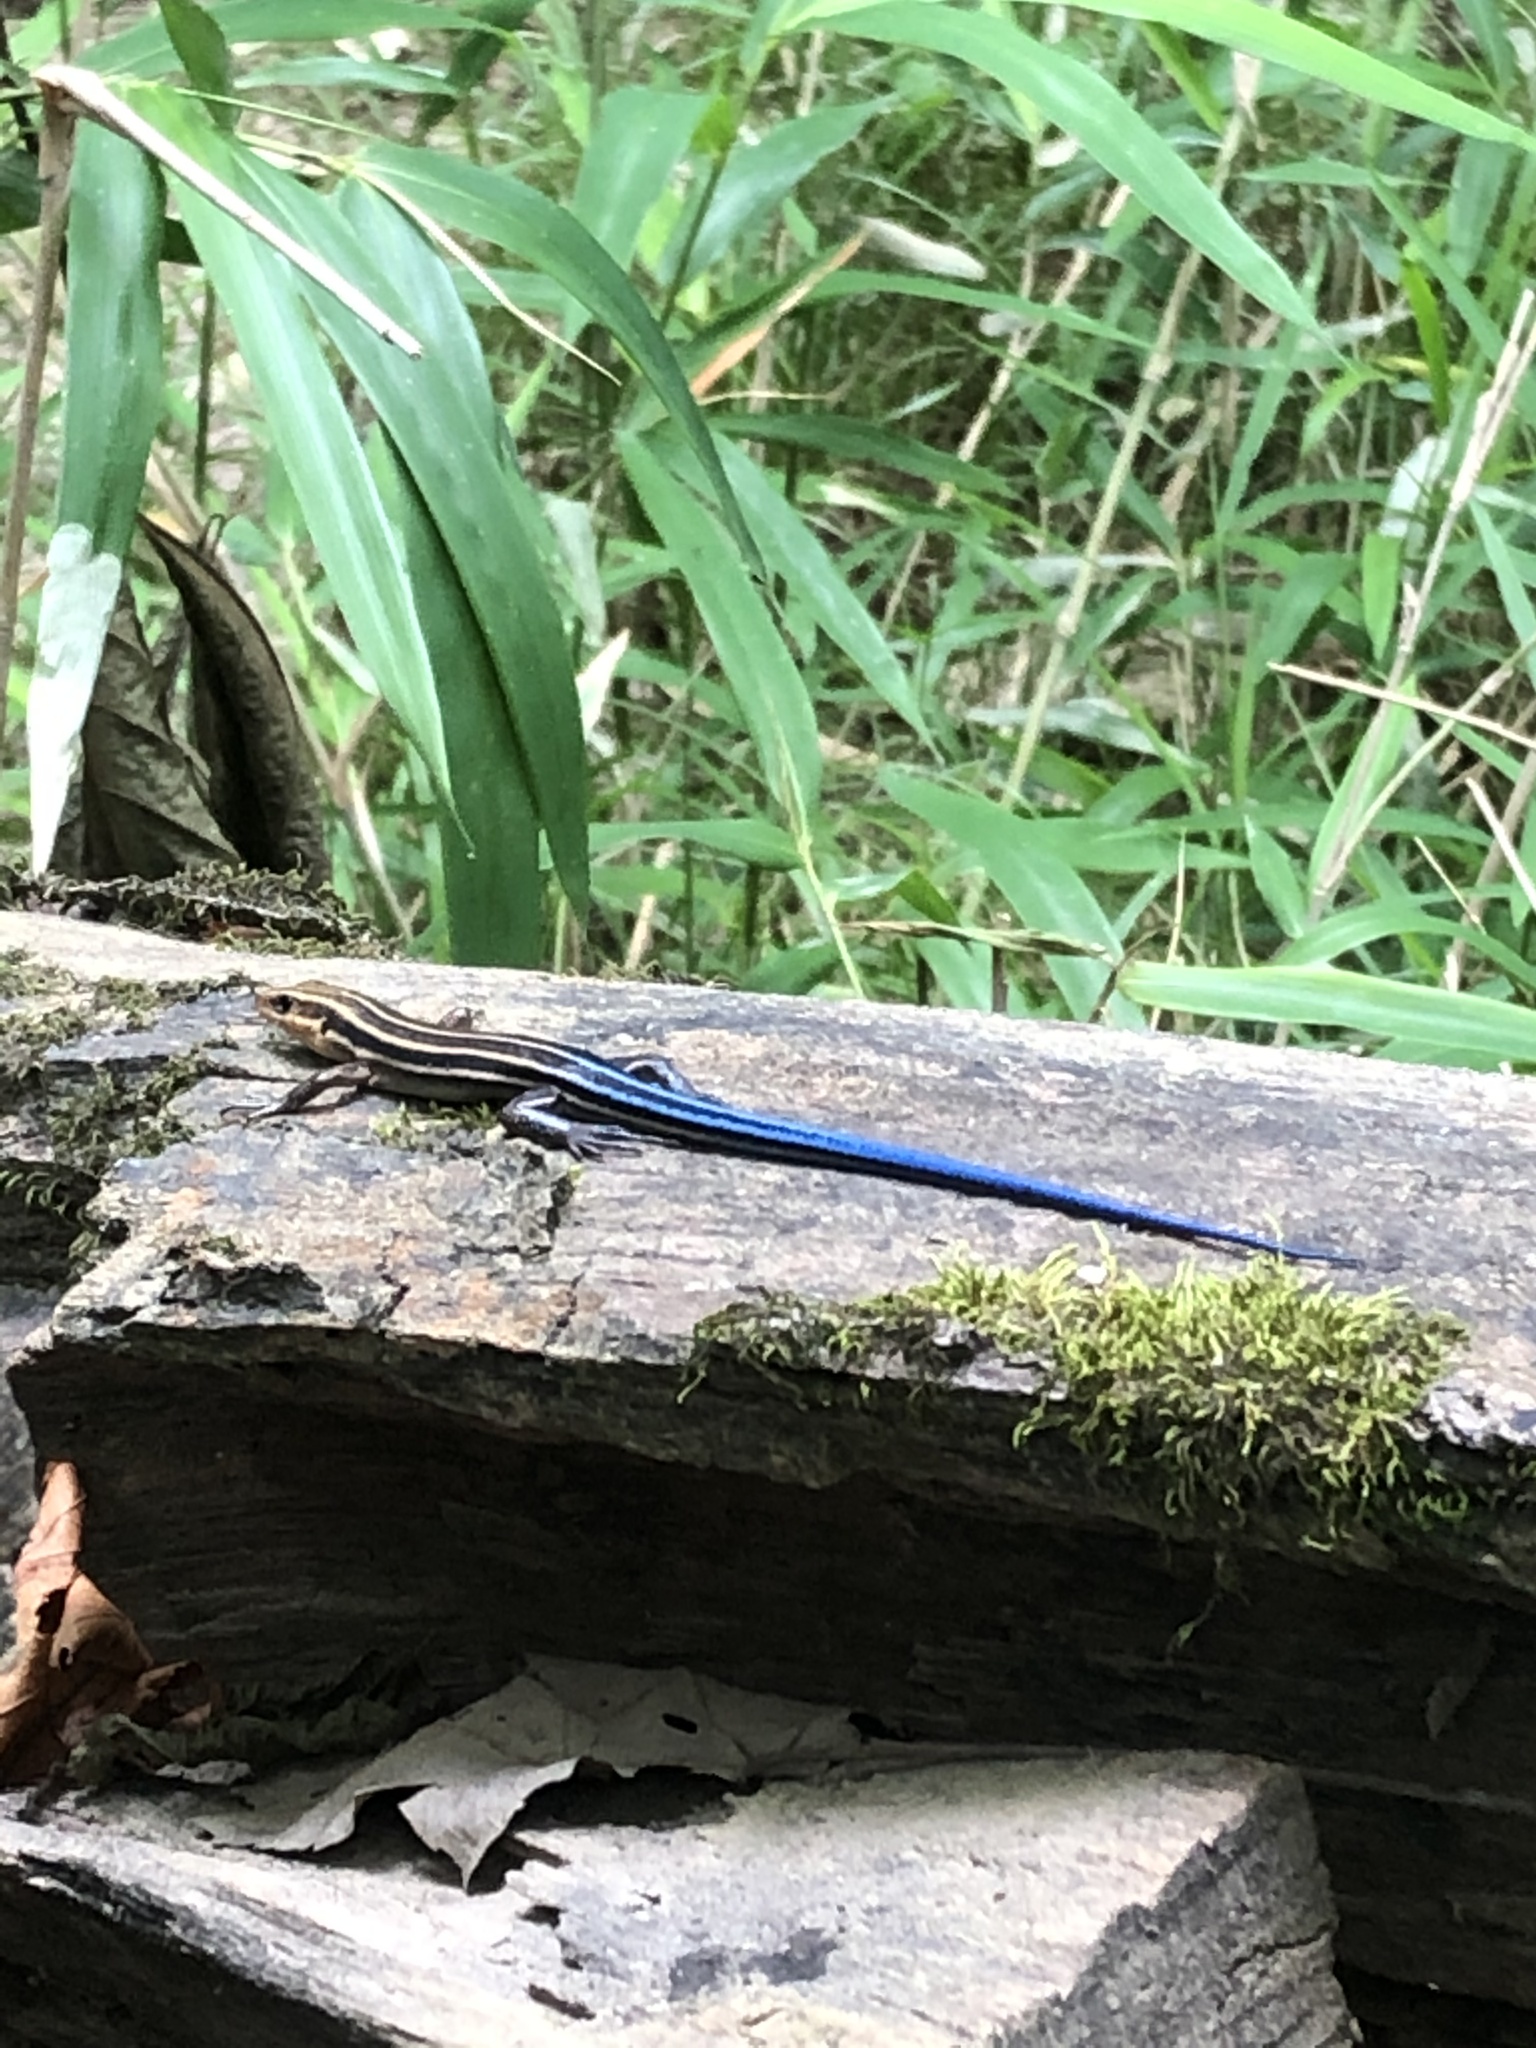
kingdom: Animalia
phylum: Chordata
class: Squamata
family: Scincidae
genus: Plestiodon
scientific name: Plestiodon fasciatus
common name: Five-lined skink
